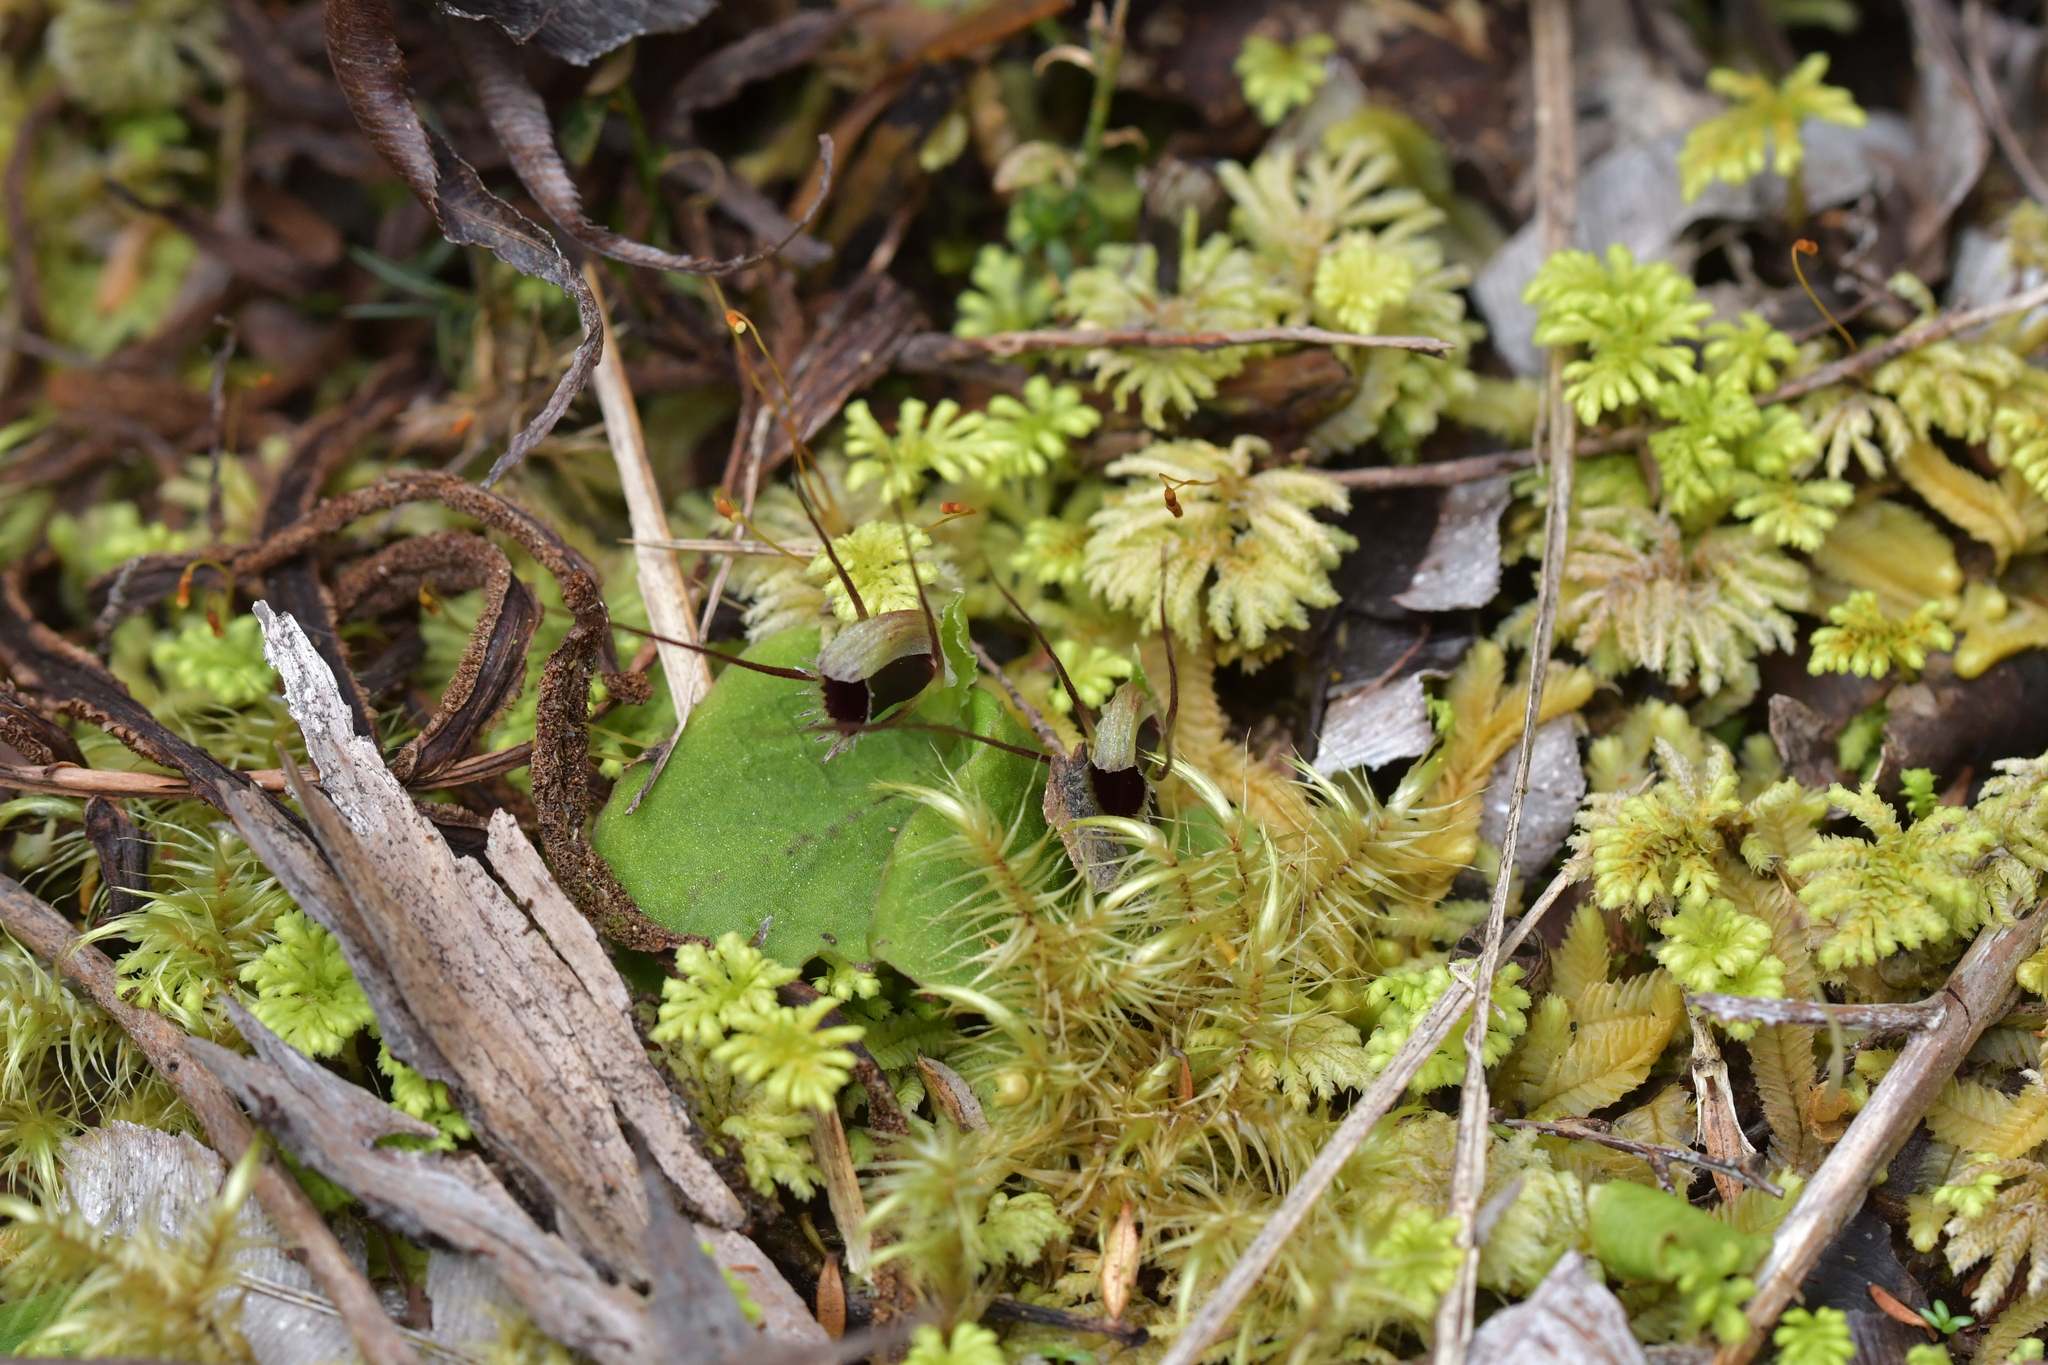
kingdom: Plantae
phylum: Tracheophyta
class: Liliopsida
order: Asparagales
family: Orchidaceae
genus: Corybas
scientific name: Corybas oblongus
